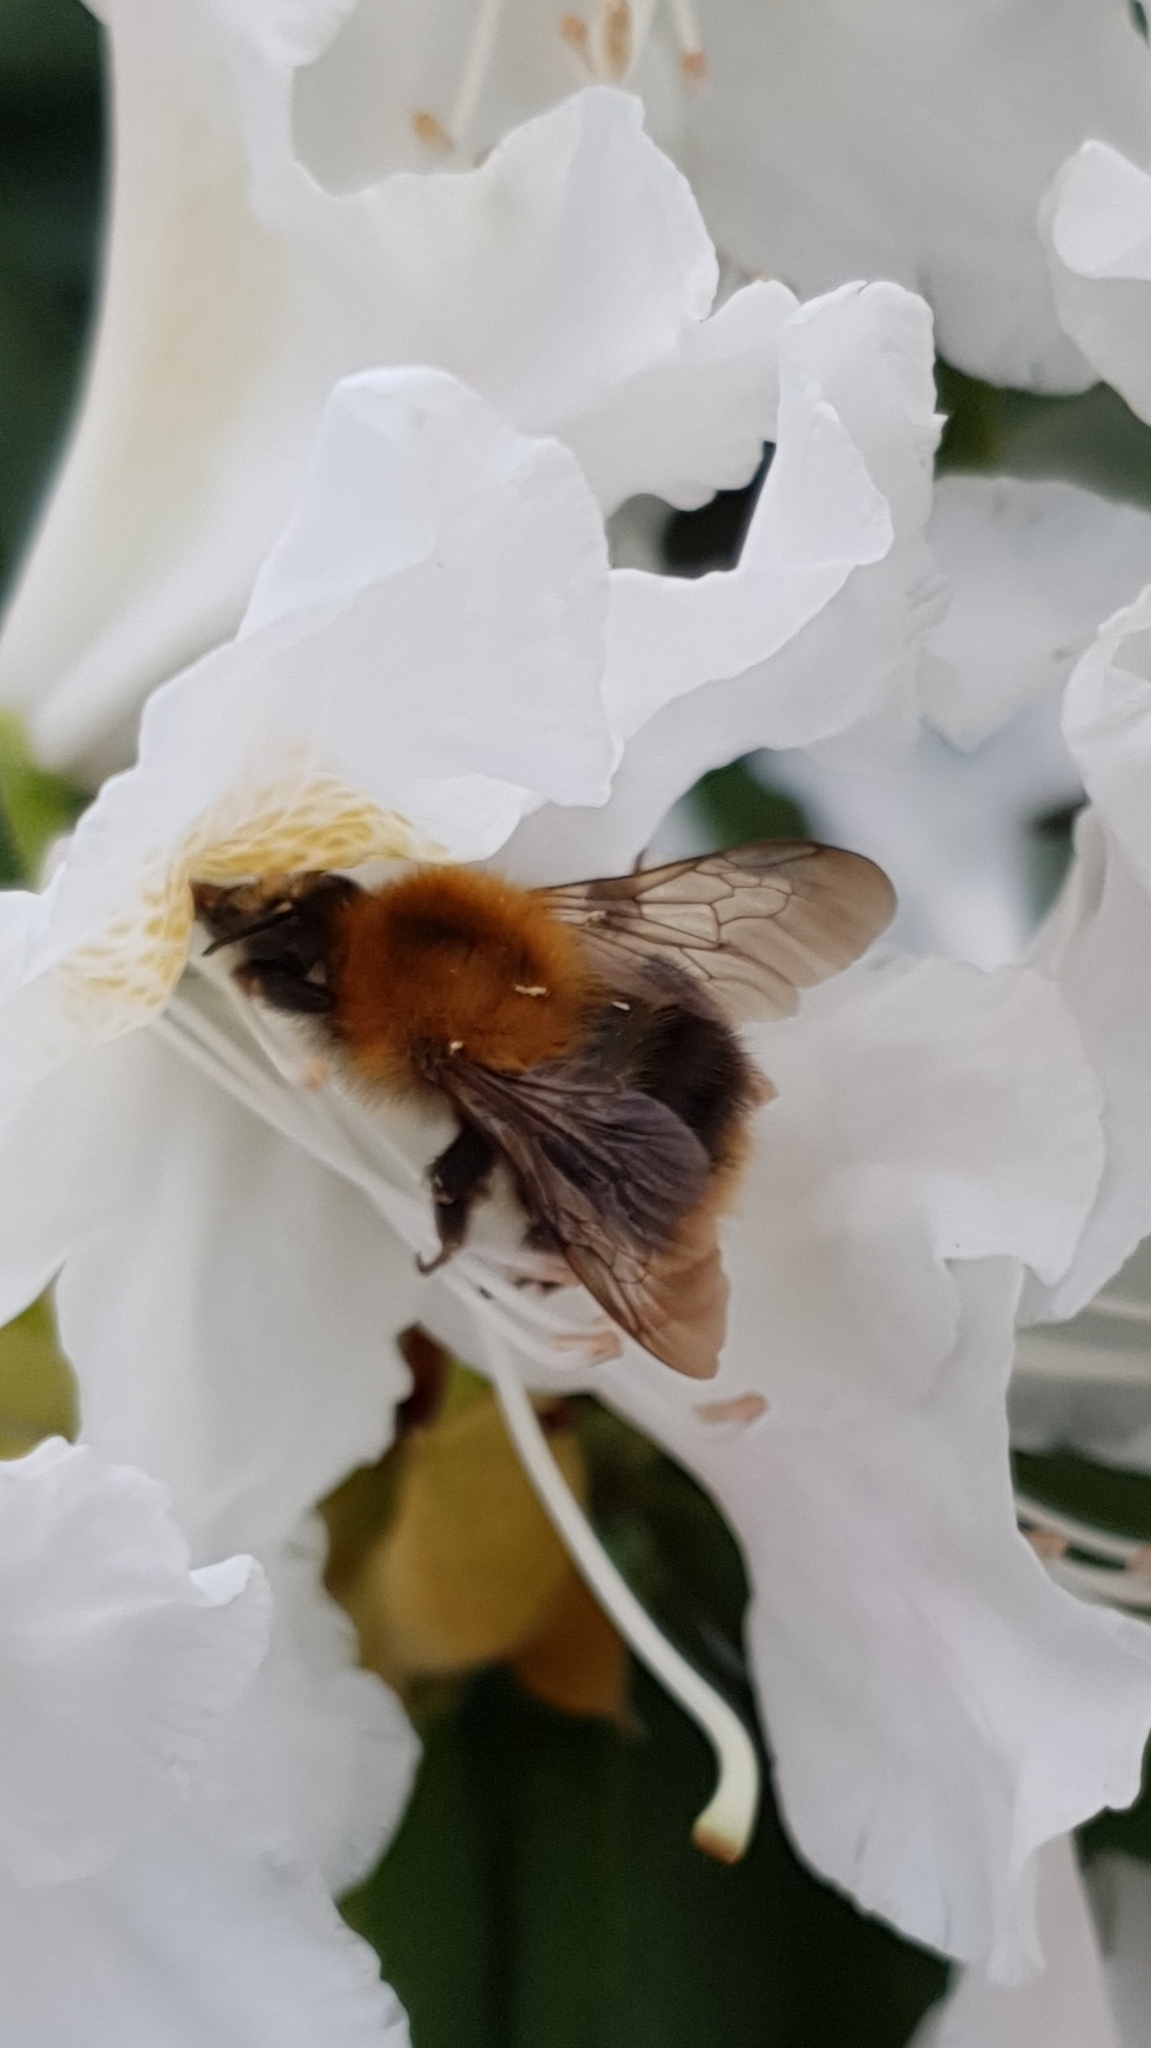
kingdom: Animalia
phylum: Arthropoda
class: Insecta
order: Hymenoptera
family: Apidae
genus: Bombus
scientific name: Bombus pascuorum
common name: Common carder bee
